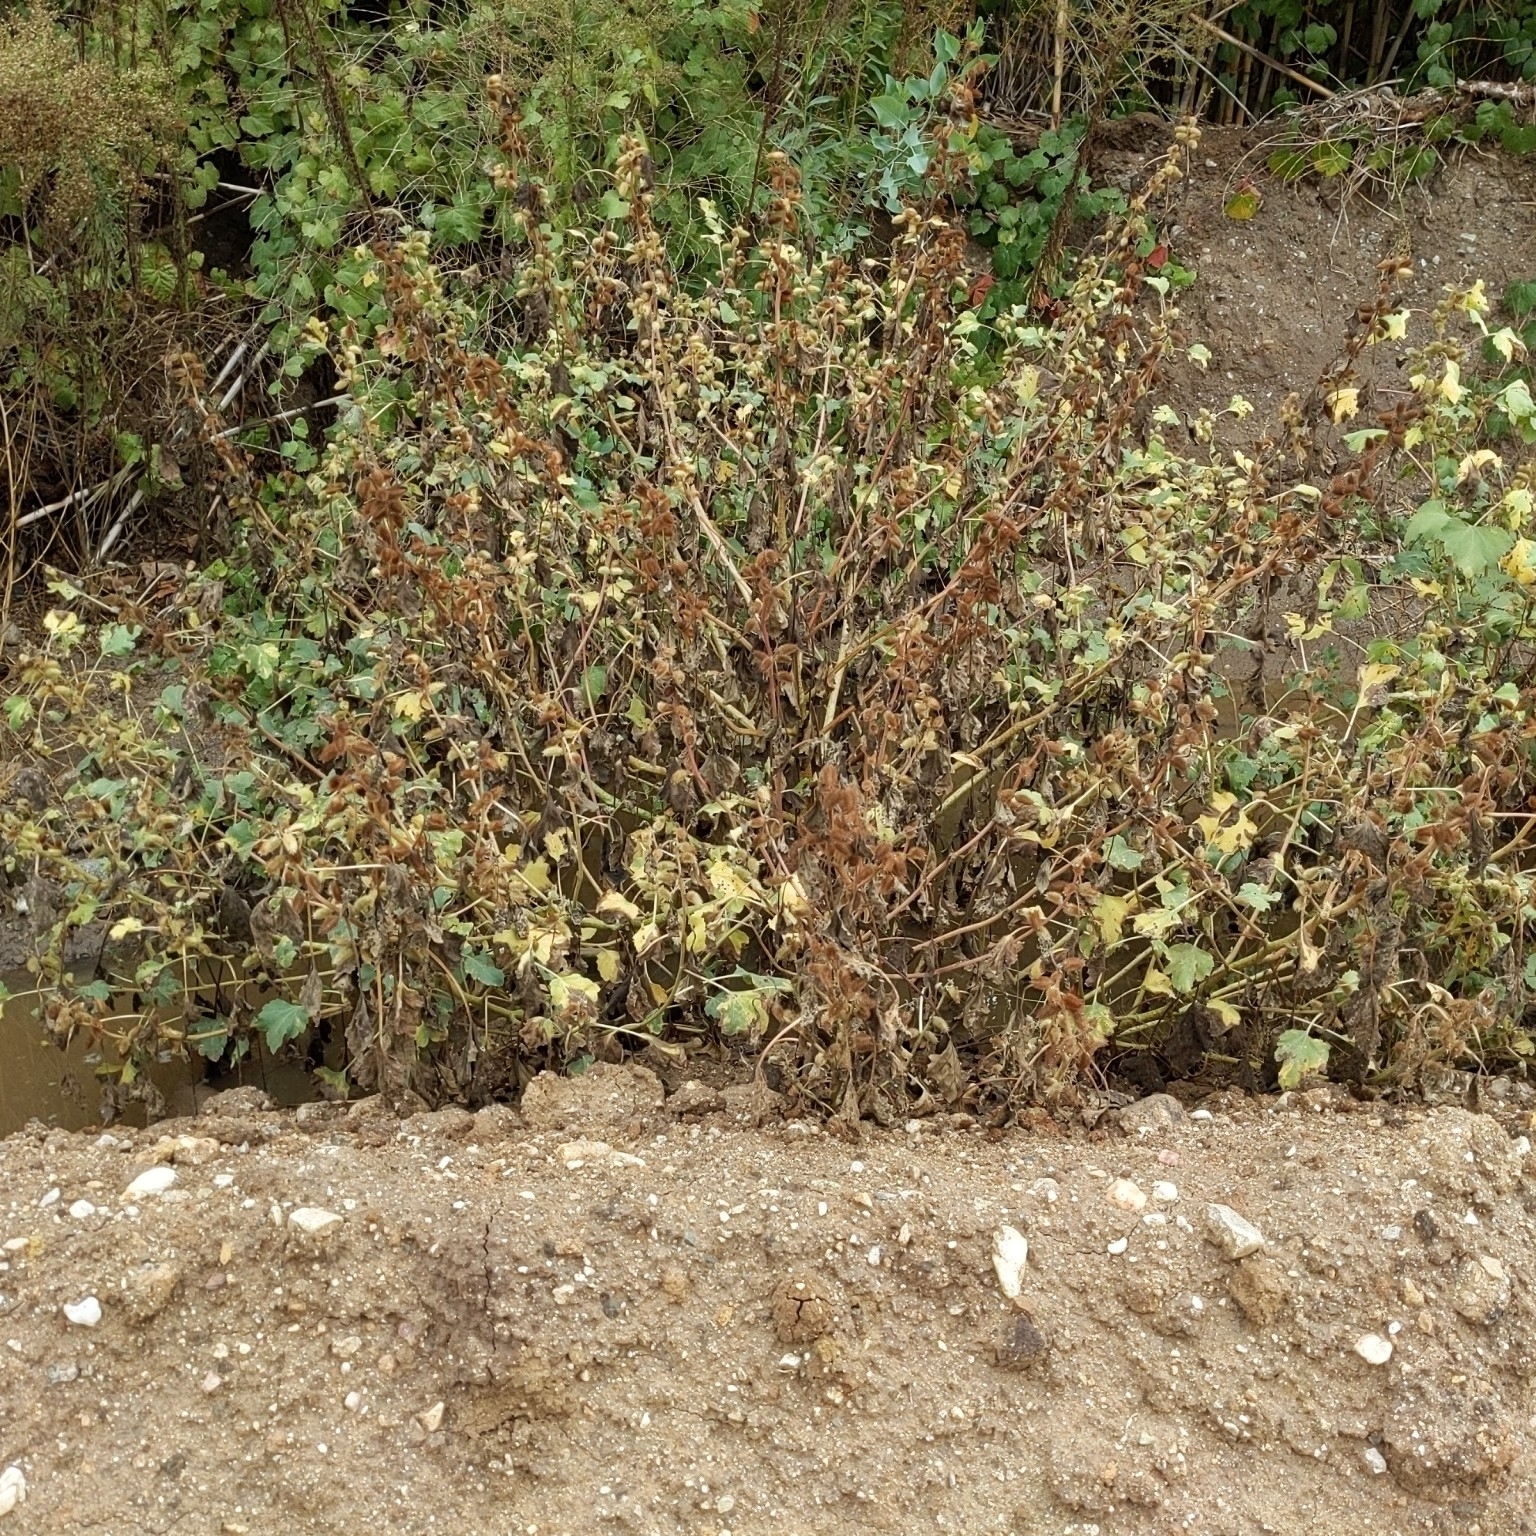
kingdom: Plantae
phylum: Tracheophyta
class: Magnoliopsida
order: Asterales
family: Asteraceae
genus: Xanthium
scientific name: Xanthium strumarium
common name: Rough cocklebur
